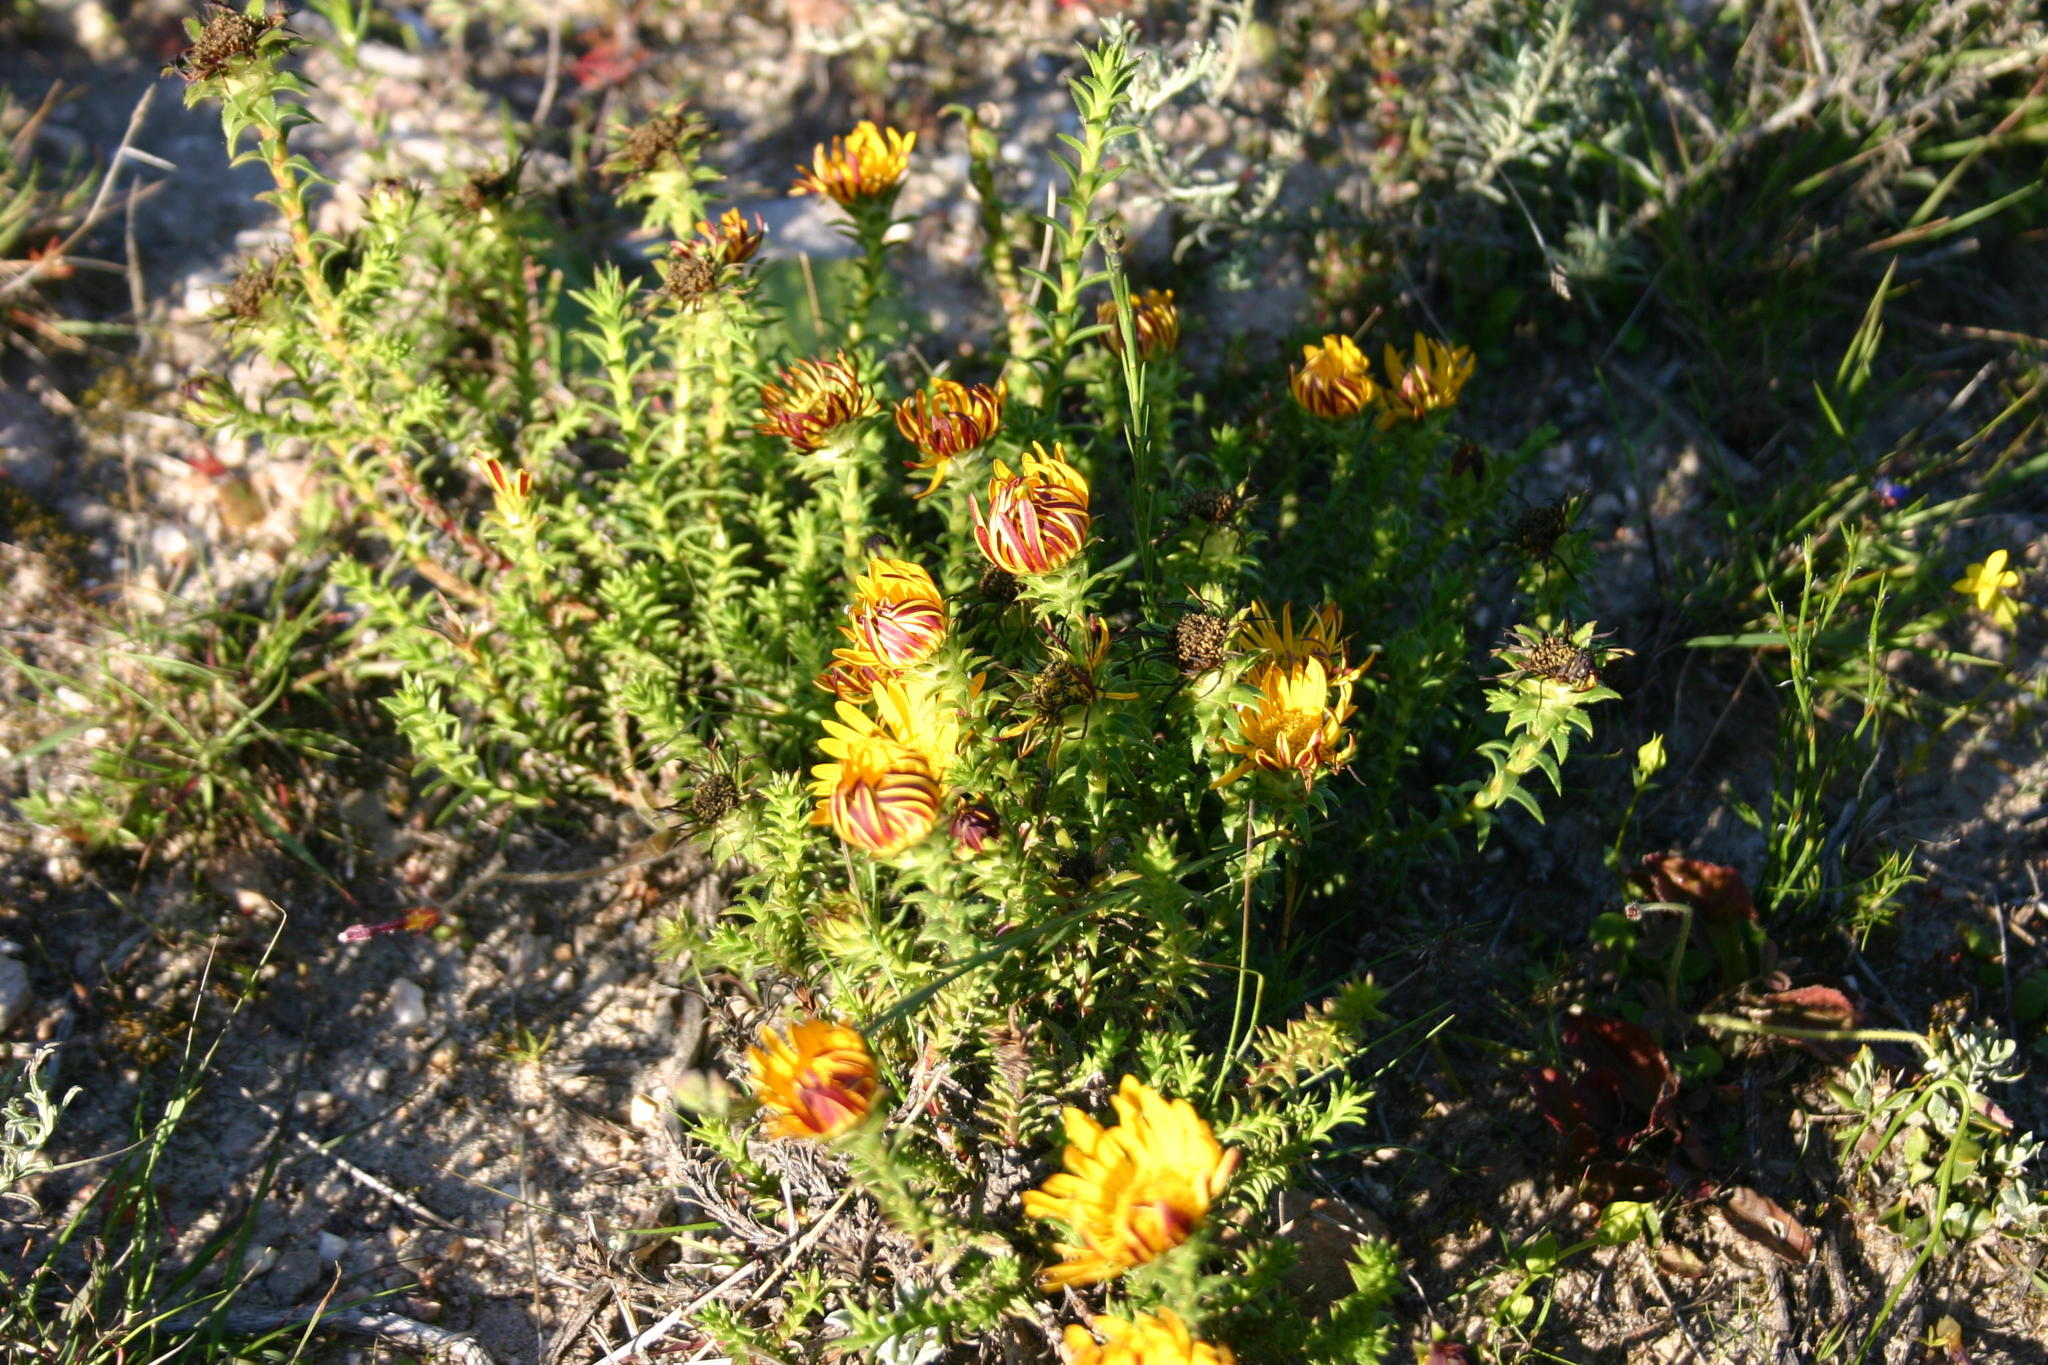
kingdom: Plantae
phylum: Tracheophyta
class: Magnoliopsida
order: Asterales
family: Asteraceae
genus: Oedera
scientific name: Oedera capensis
